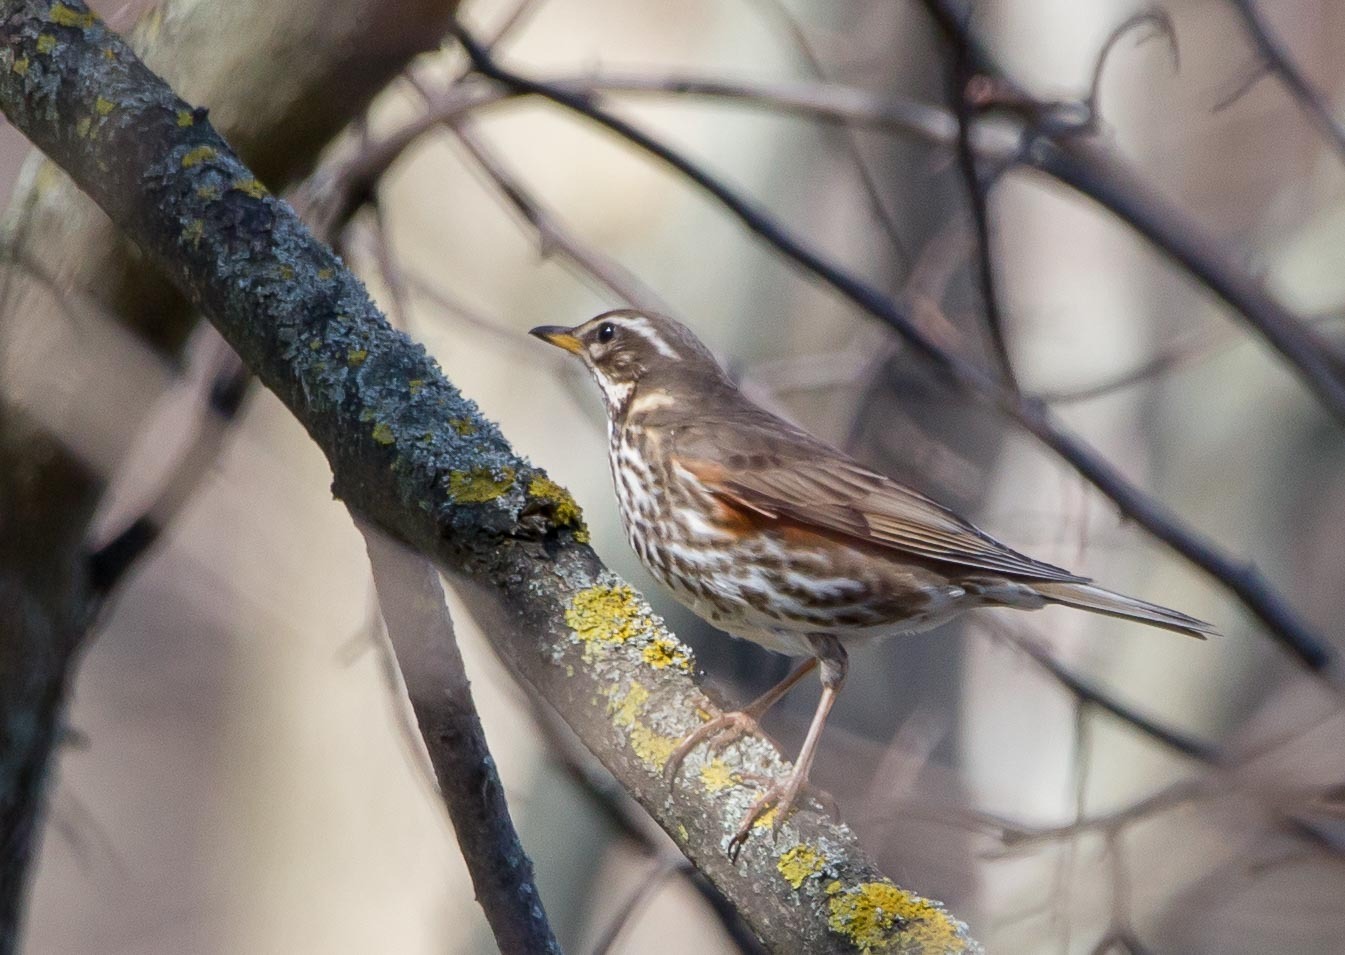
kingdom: Animalia
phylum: Chordata
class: Aves
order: Passeriformes
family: Turdidae
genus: Turdus
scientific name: Turdus iliacus
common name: Redwing
